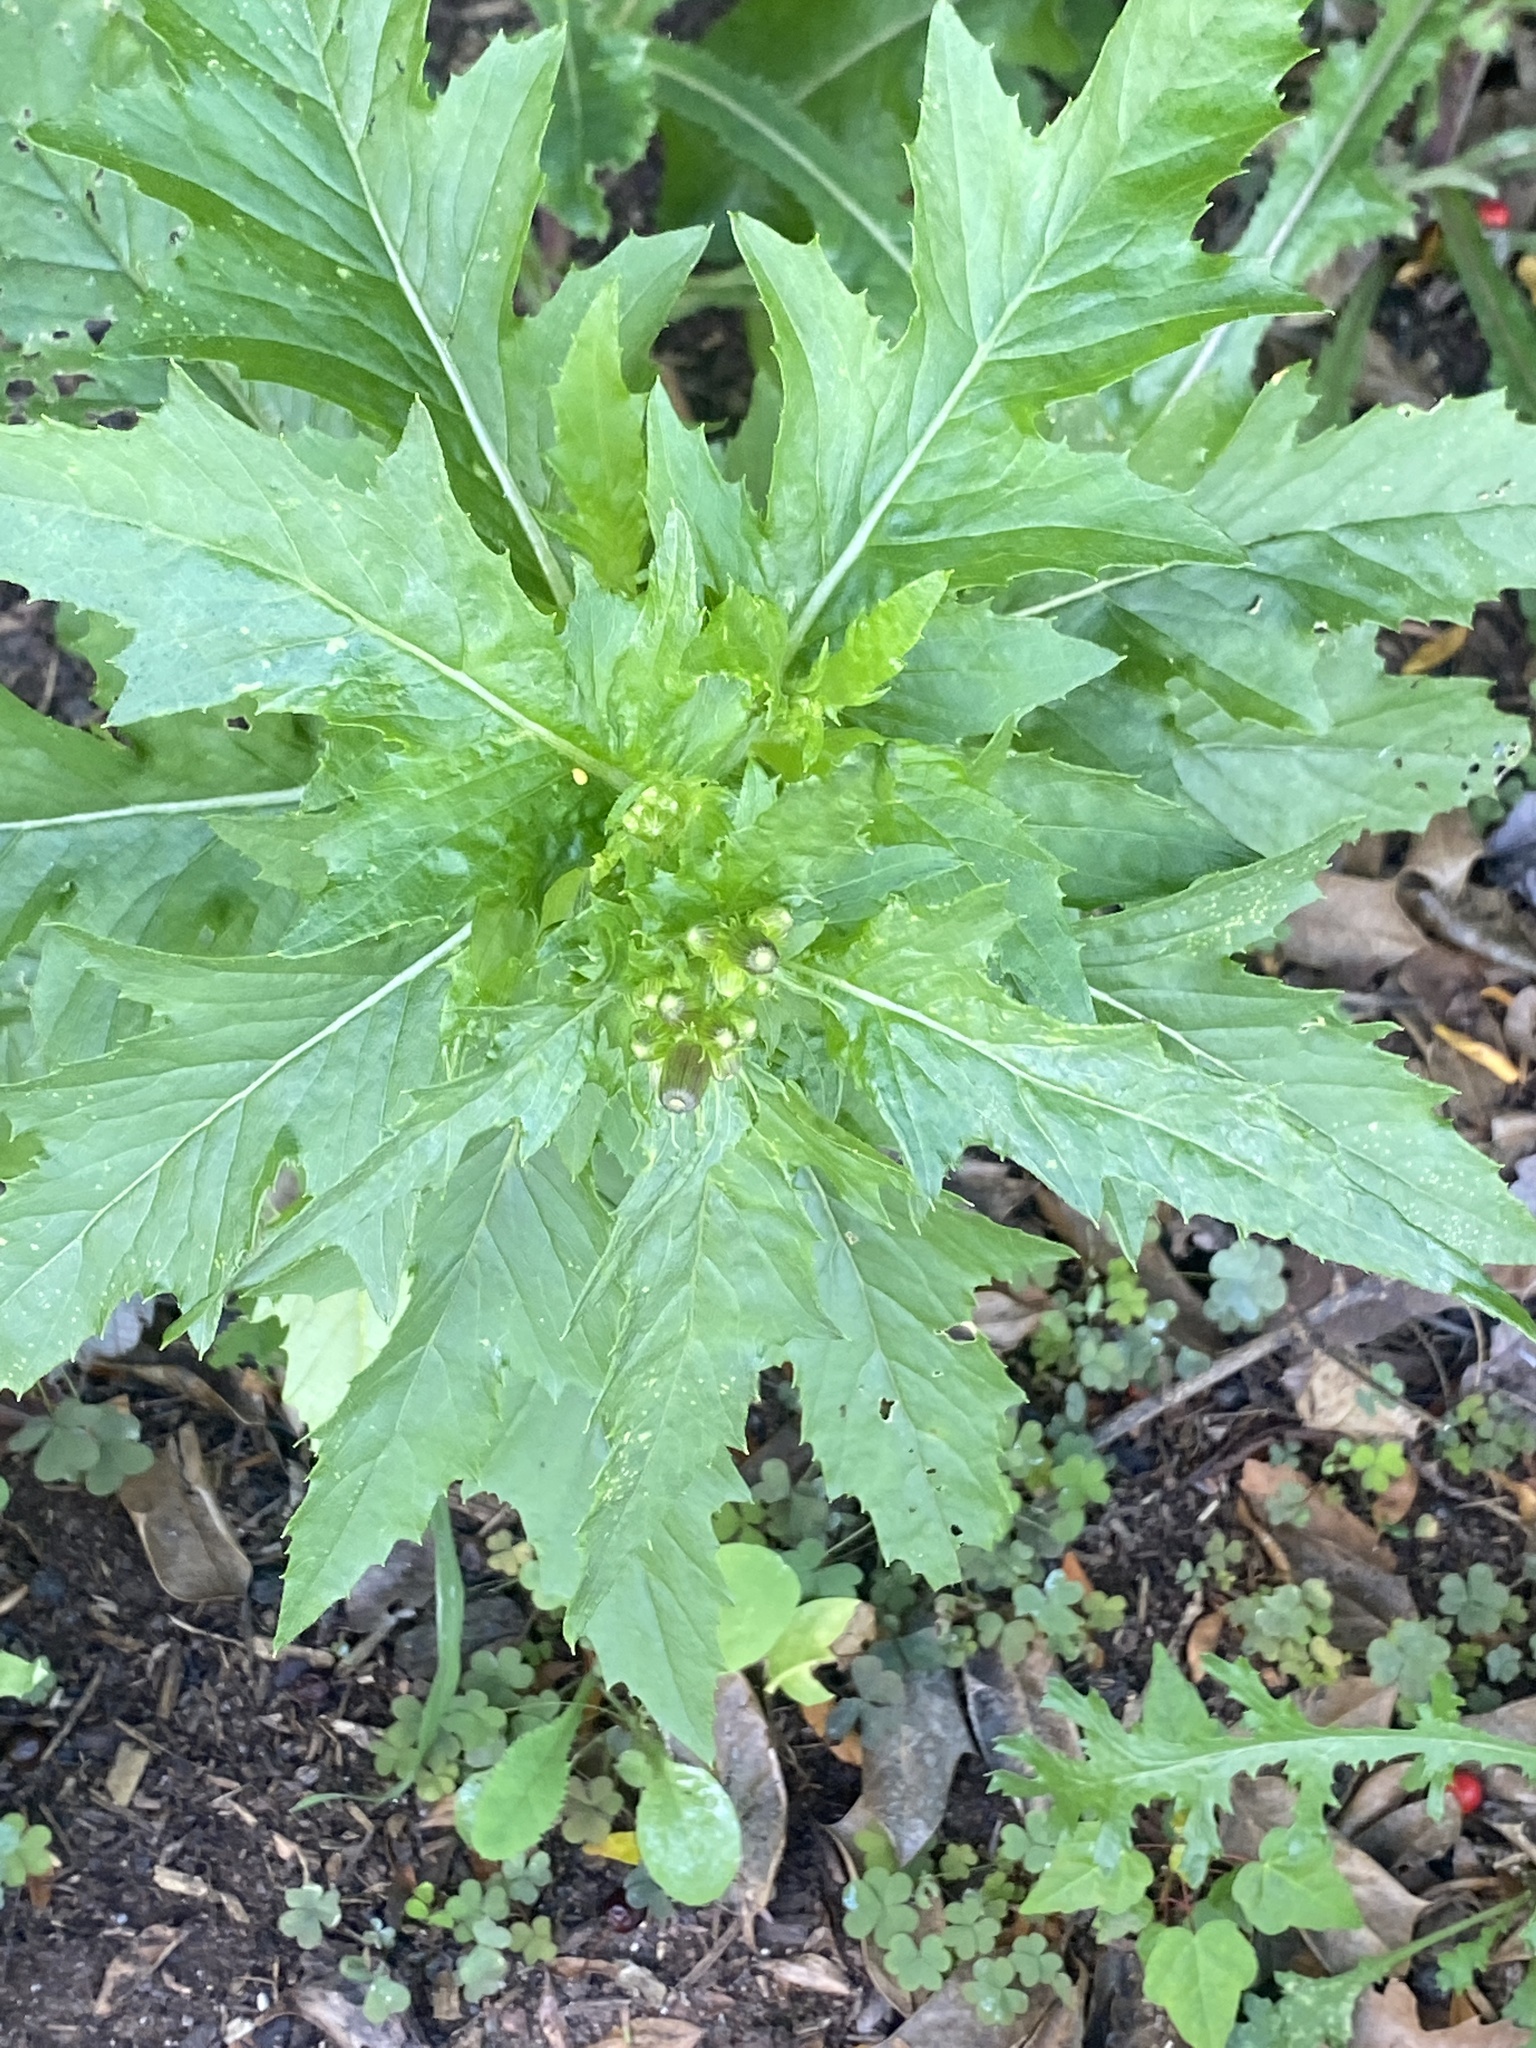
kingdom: Plantae
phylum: Tracheophyta
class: Magnoliopsida
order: Asterales
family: Asteraceae
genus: Erechtites
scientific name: Erechtites hieraciifolius
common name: American burnweed
